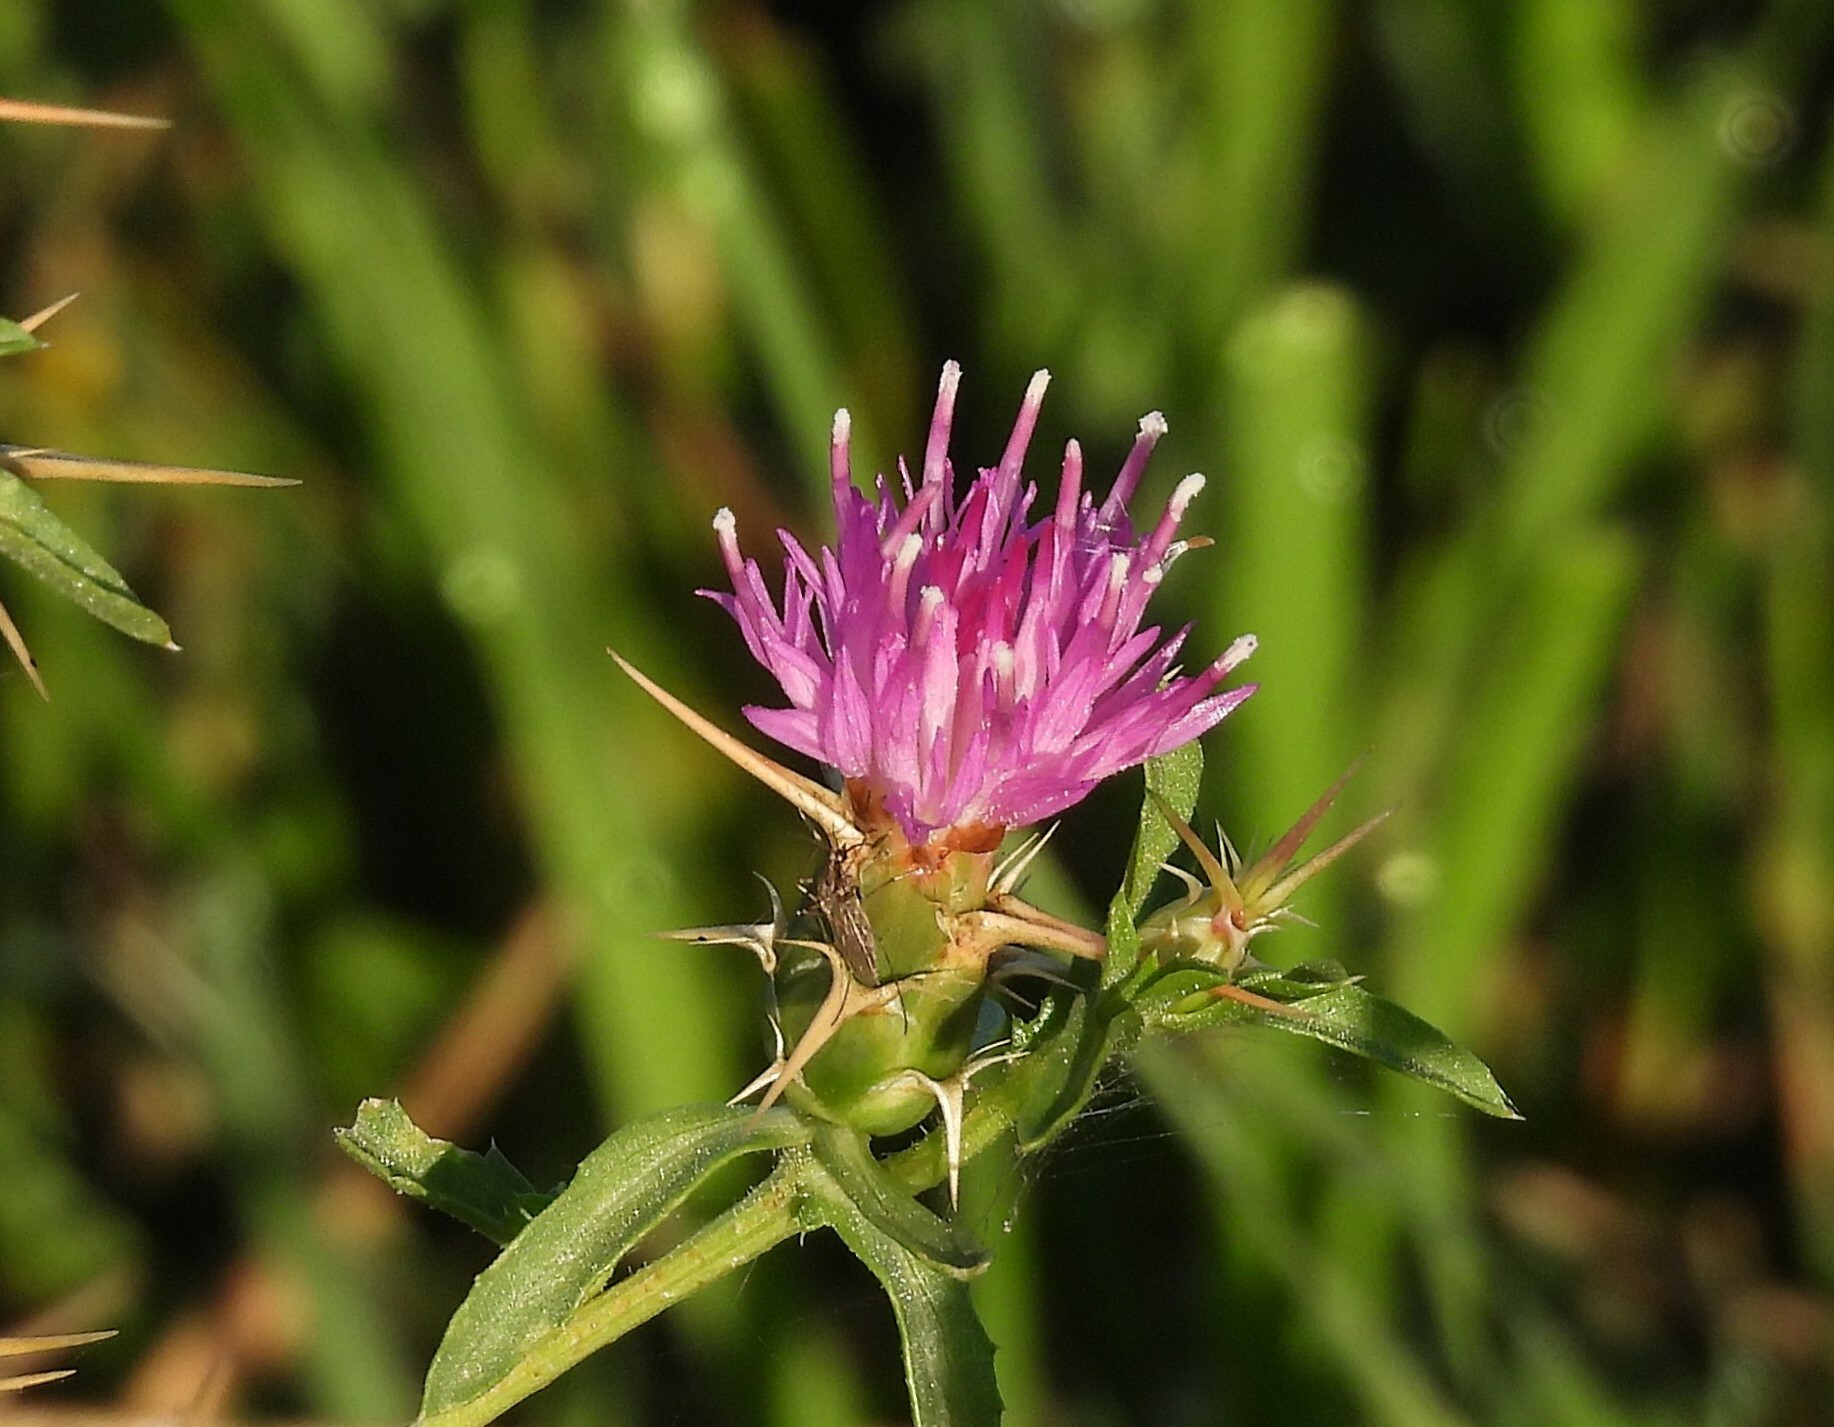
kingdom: Plantae
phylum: Tracheophyta
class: Magnoliopsida
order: Asterales
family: Asteraceae
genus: Centaurea
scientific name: Centaurea calcitrapa
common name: Red star-thistle
